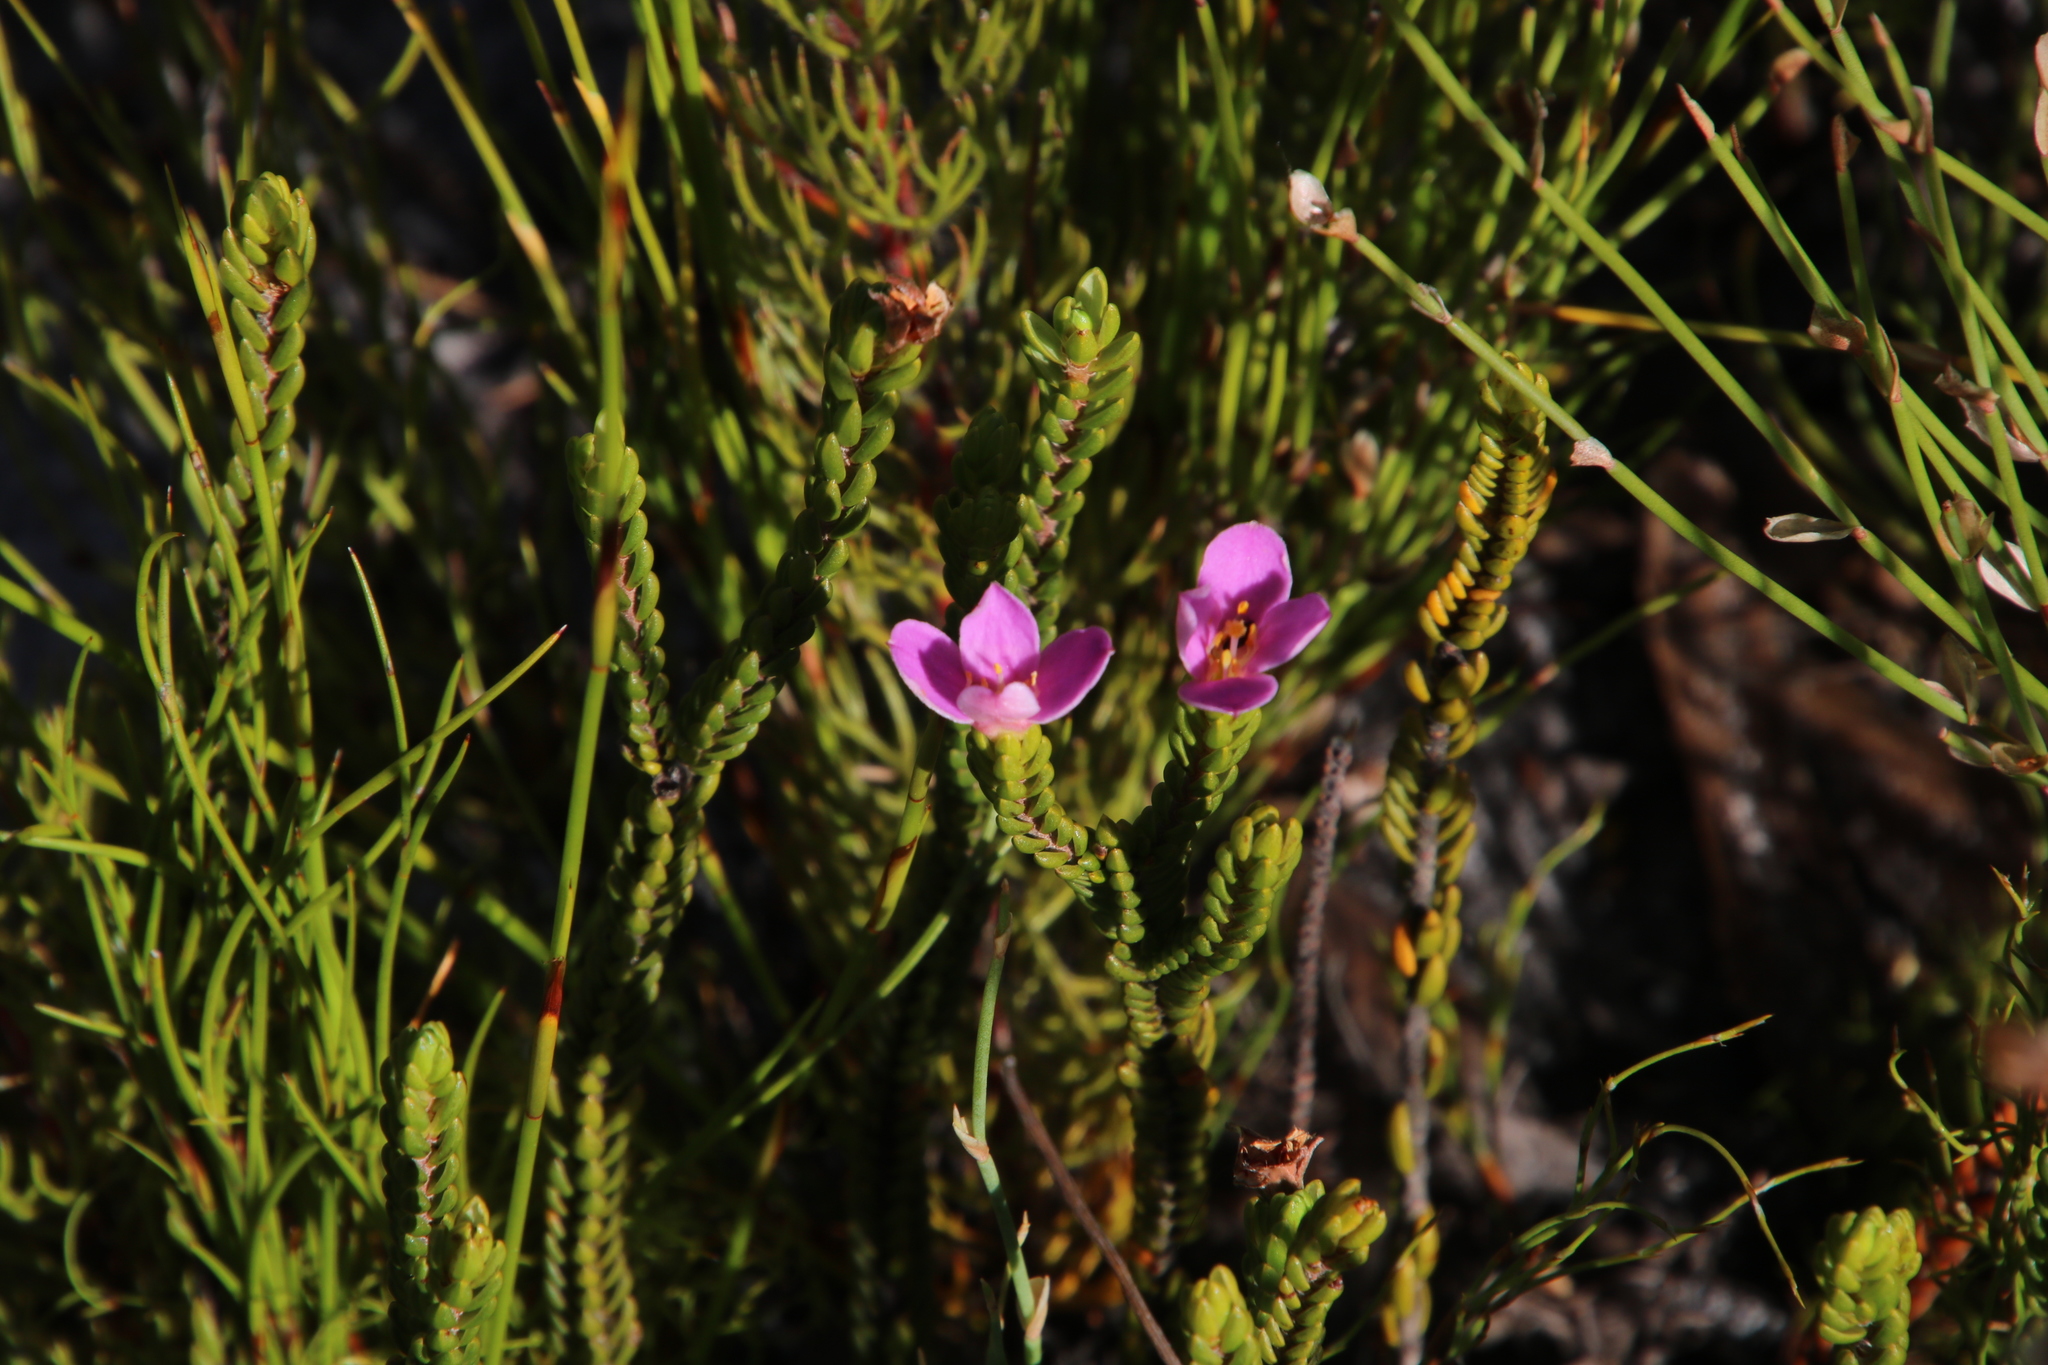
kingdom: Plantae
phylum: Tracheophyta
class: Magnoliopsida
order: Malvales
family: Thymelaeaceae
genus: Lachnaea
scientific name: Lachnaea grandiflora
